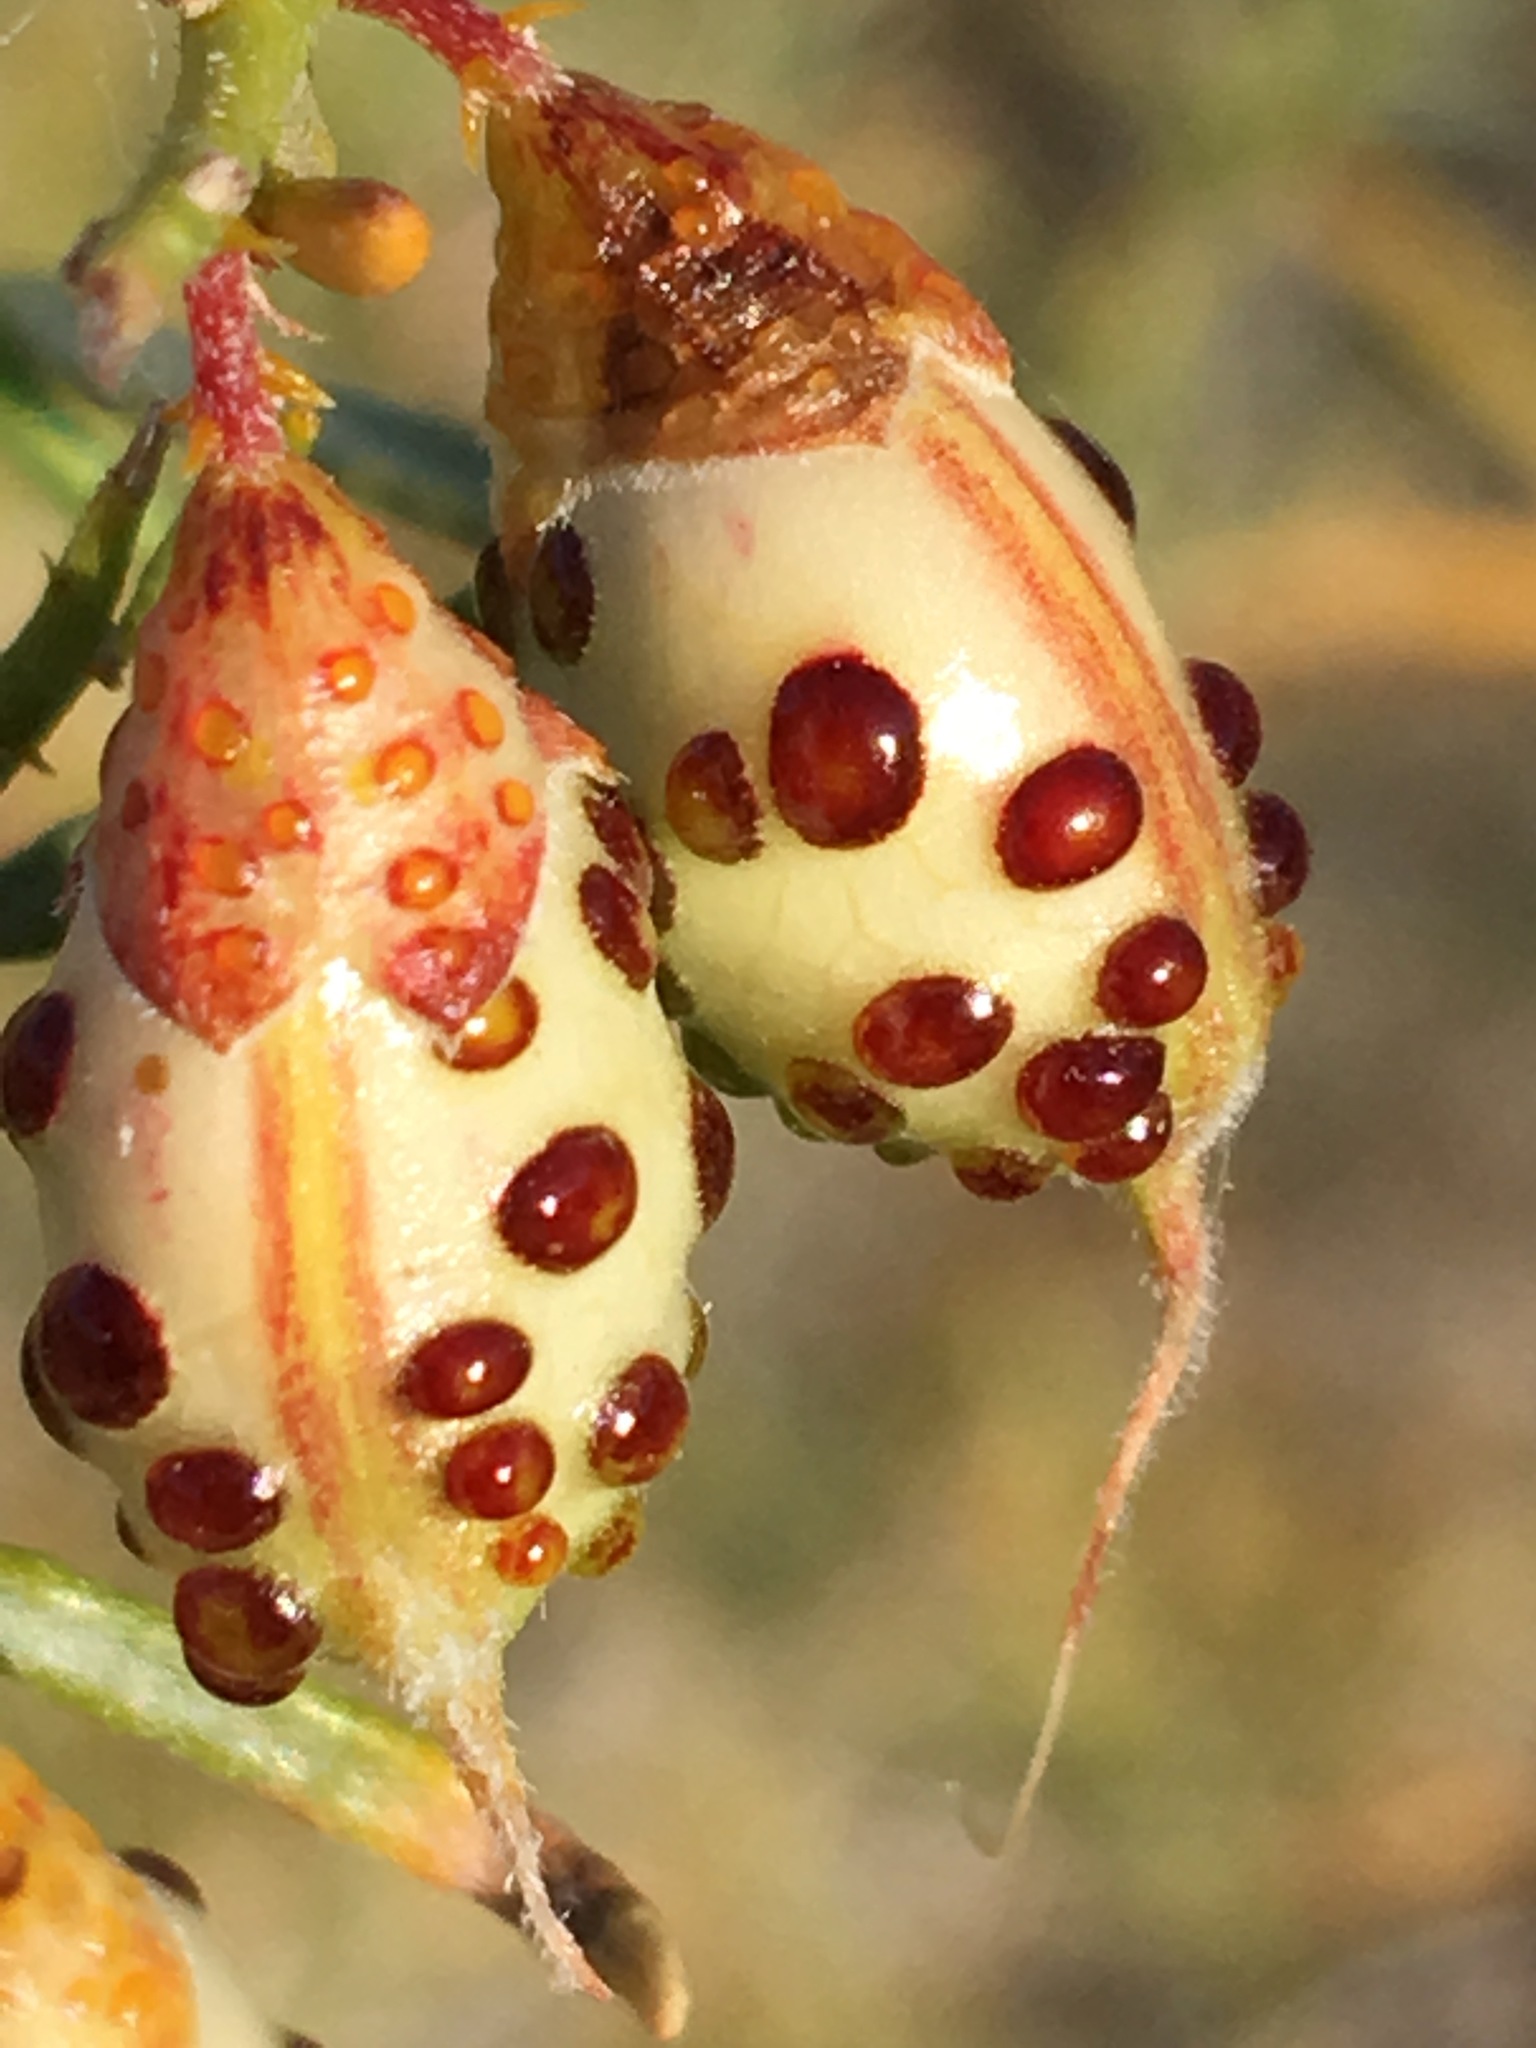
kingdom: Plantae
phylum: Tracheophyta
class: Magnoliopsida
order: Fabales
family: Fabaceae
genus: Psorothamnus
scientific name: Psorothamnus schottii
